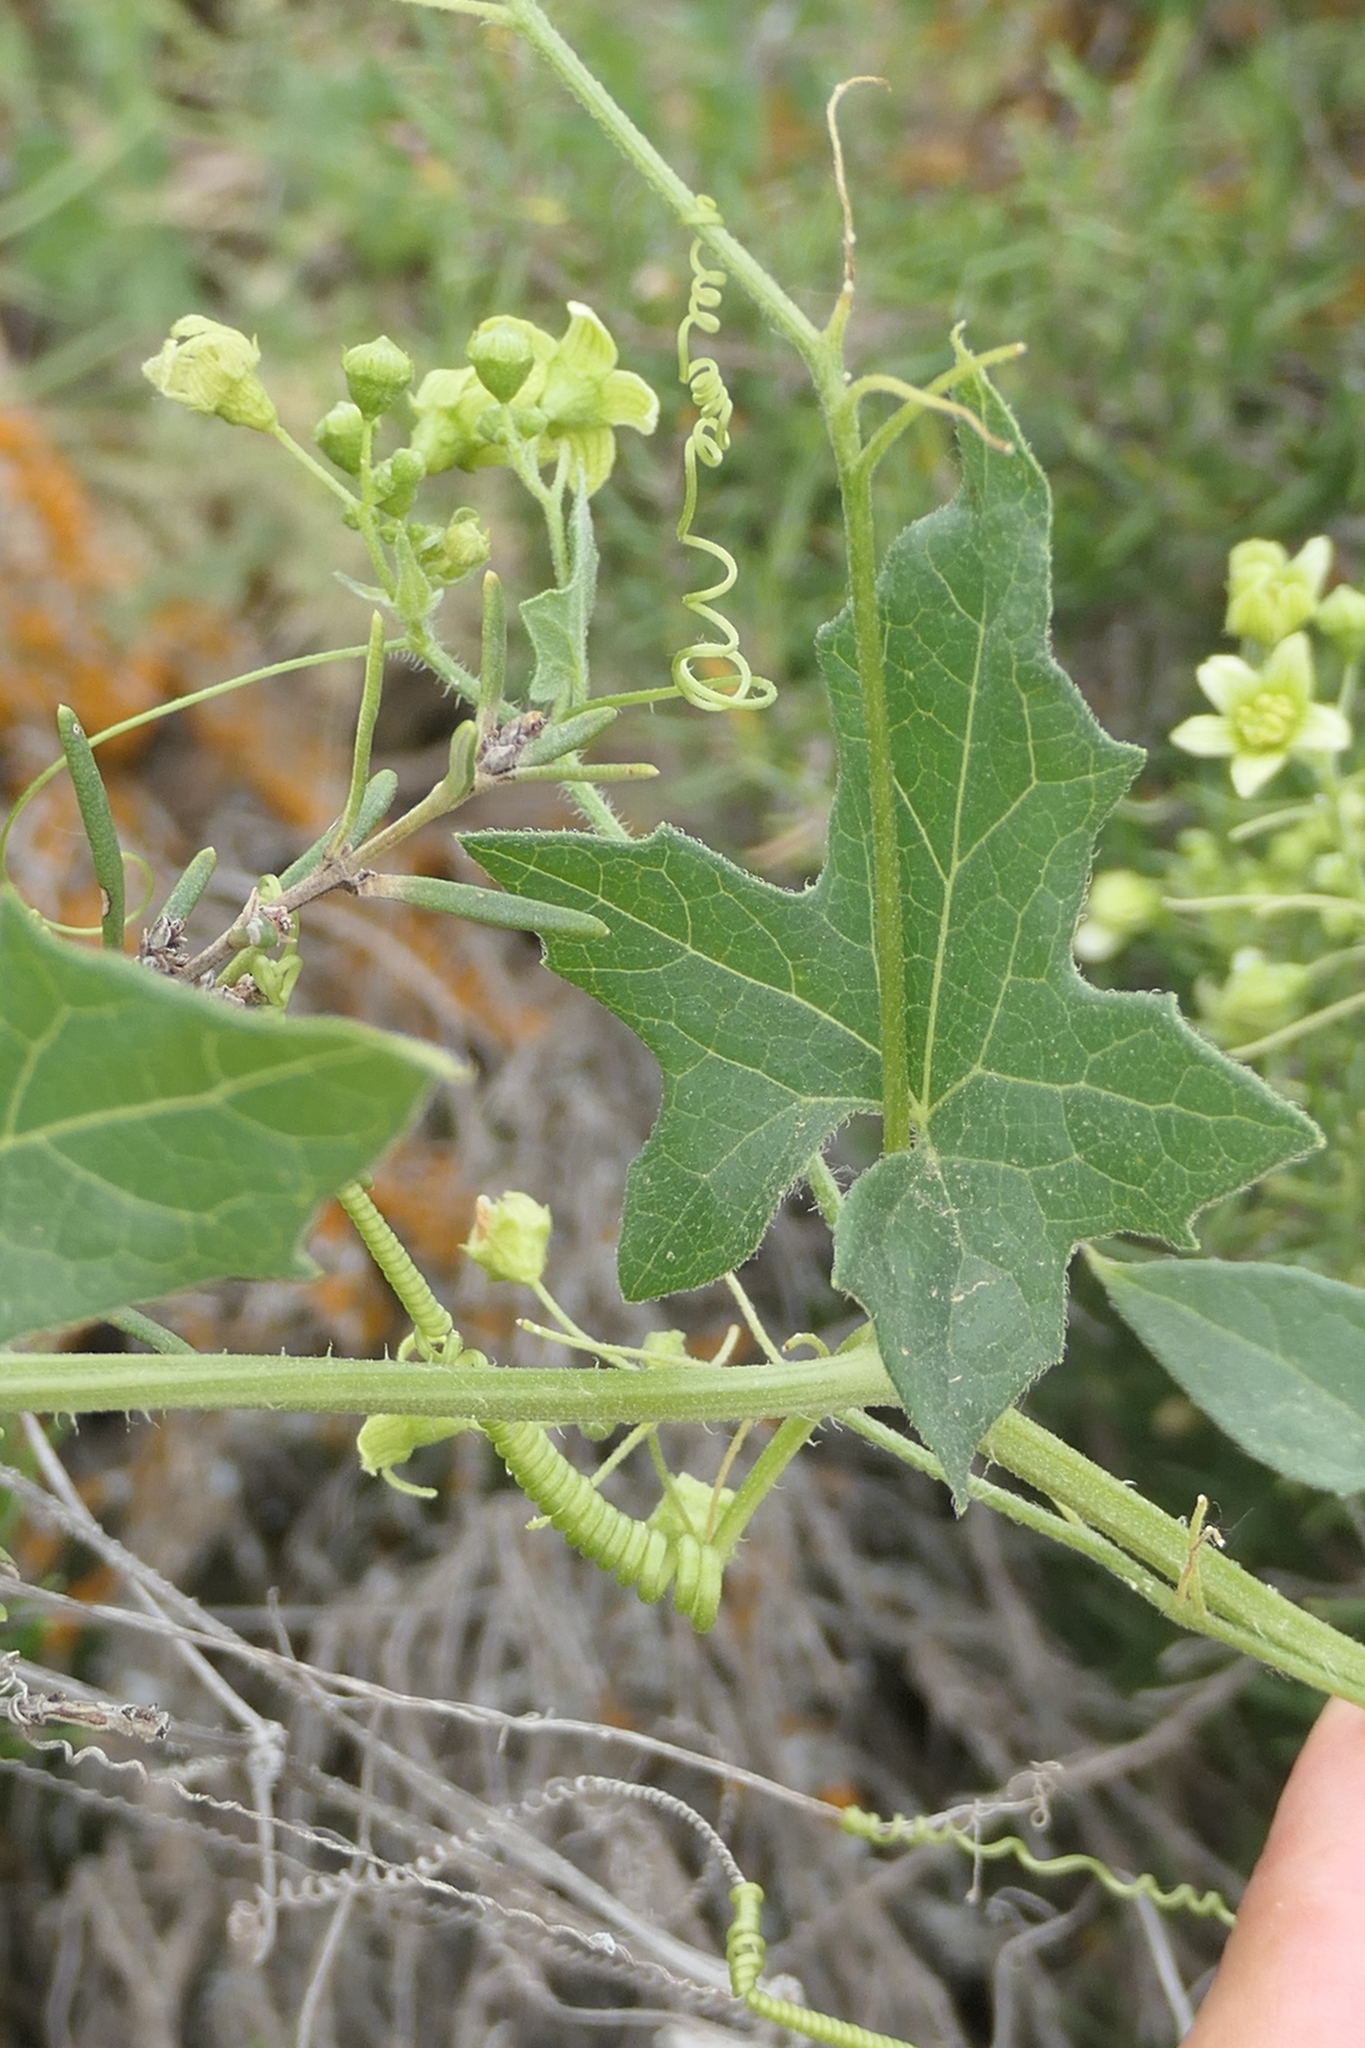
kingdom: Plantae
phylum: Tracheophyta
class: Magnoliopsida
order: Cucurbitales
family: Cucurbitaceae
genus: Bryonia
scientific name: Bryonia cretica
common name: Cretan bryony
